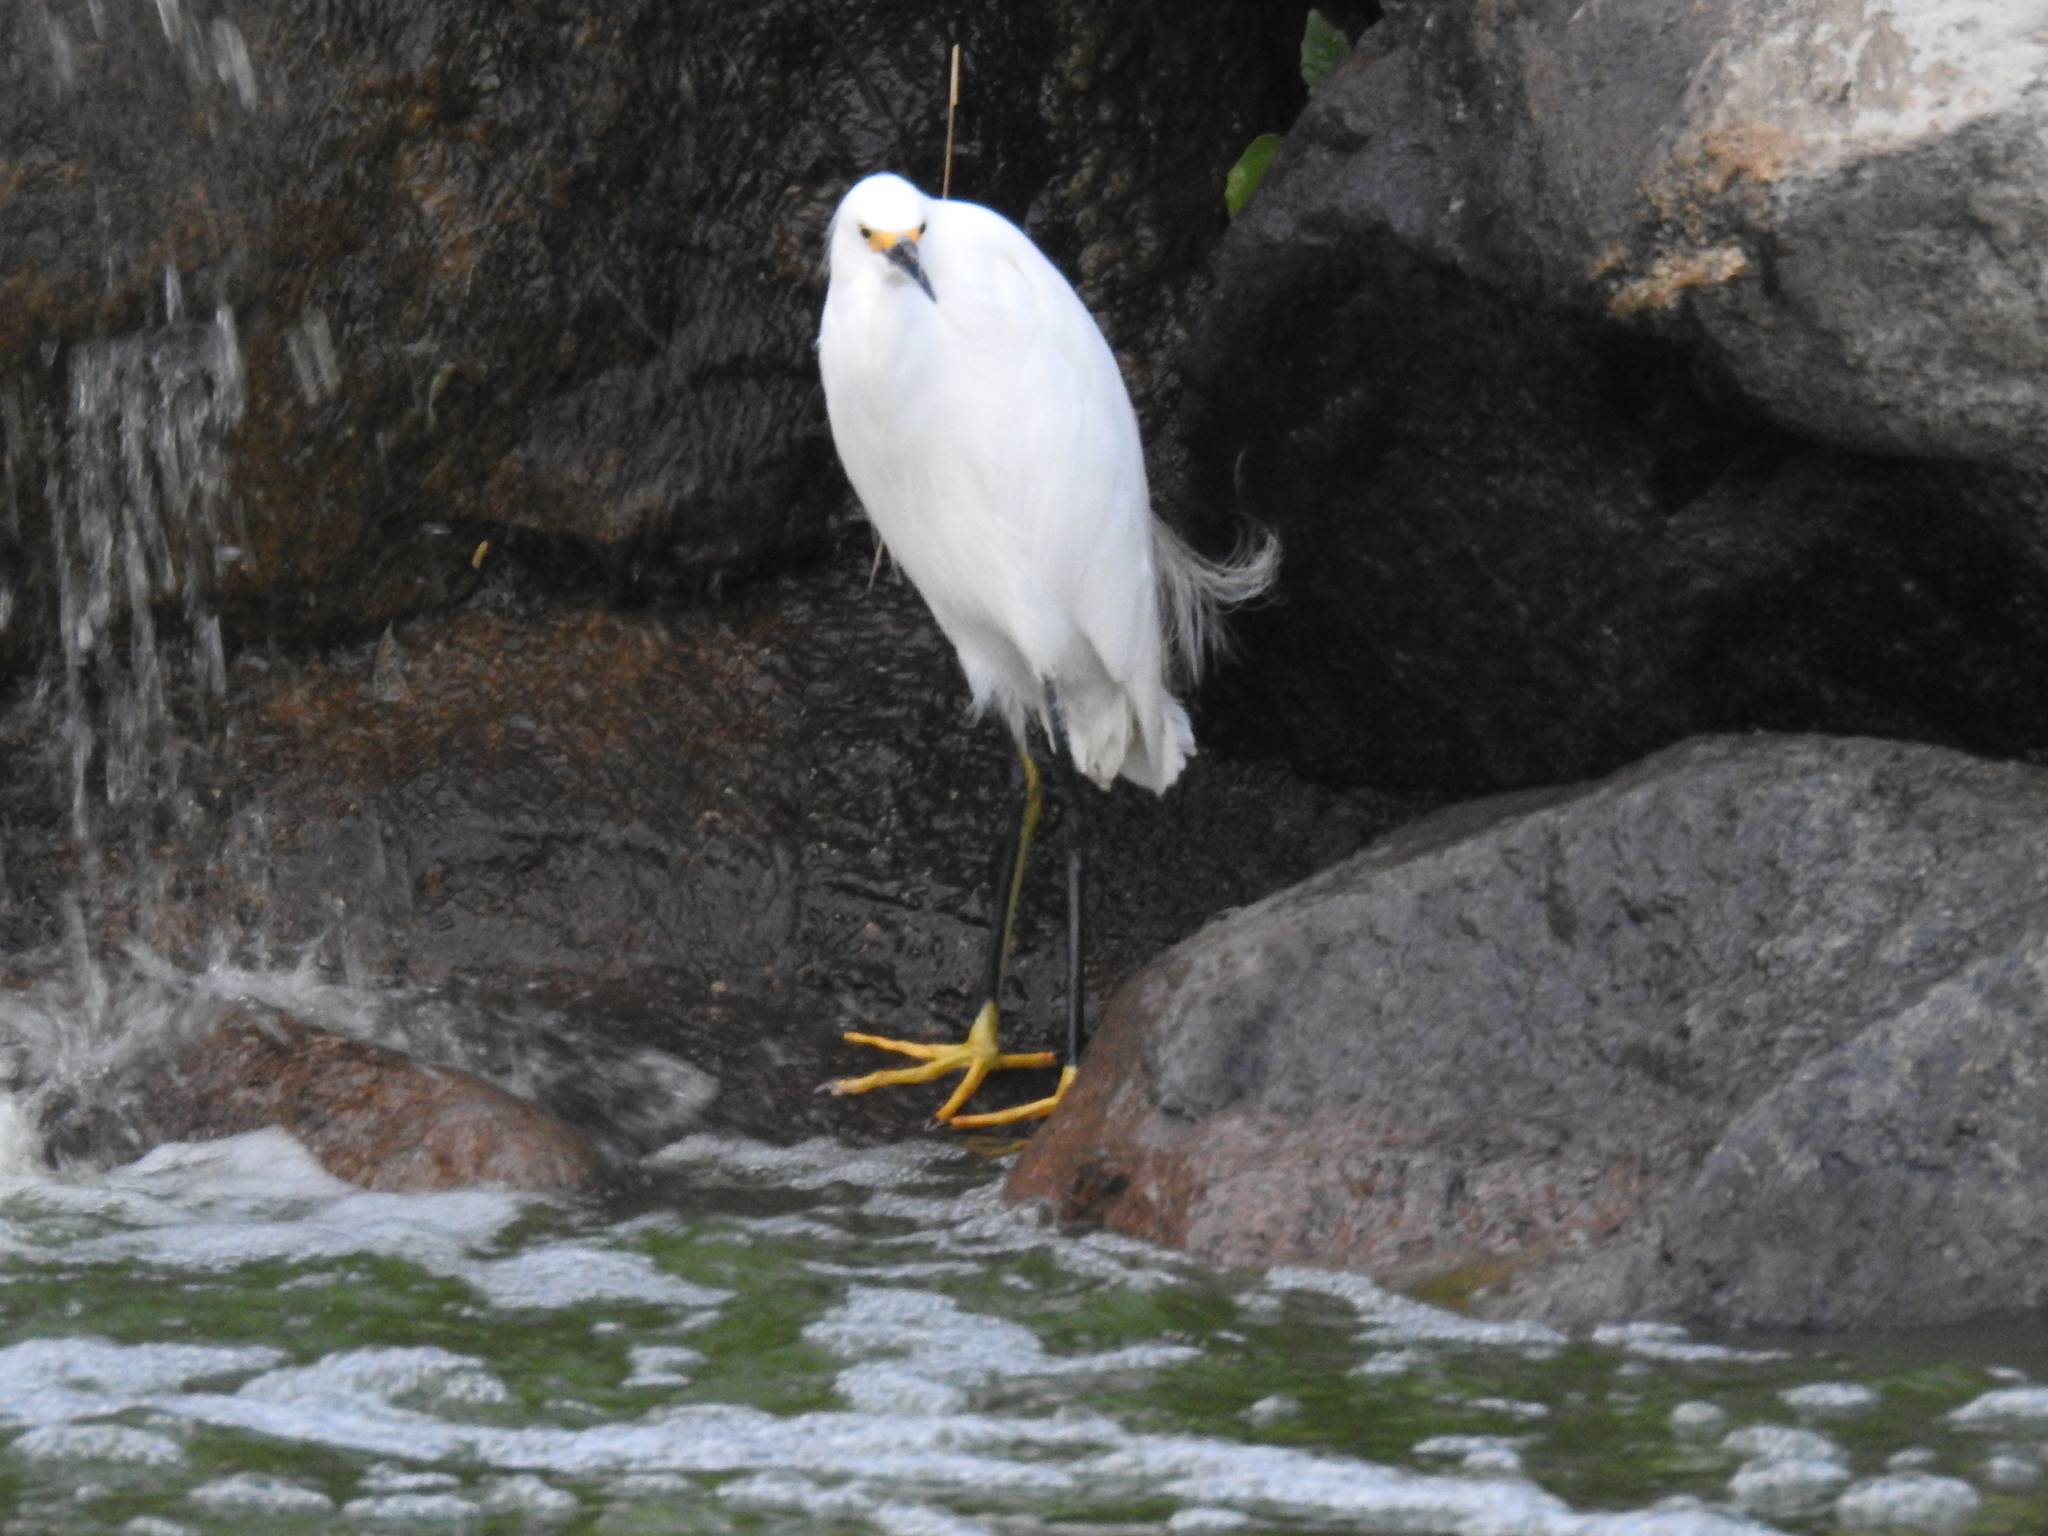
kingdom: Animalia
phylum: Chordata
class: Aves
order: Pelecaniformes
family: Ardeidae
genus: Egretta
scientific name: Egretta thula
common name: Snowy egret
